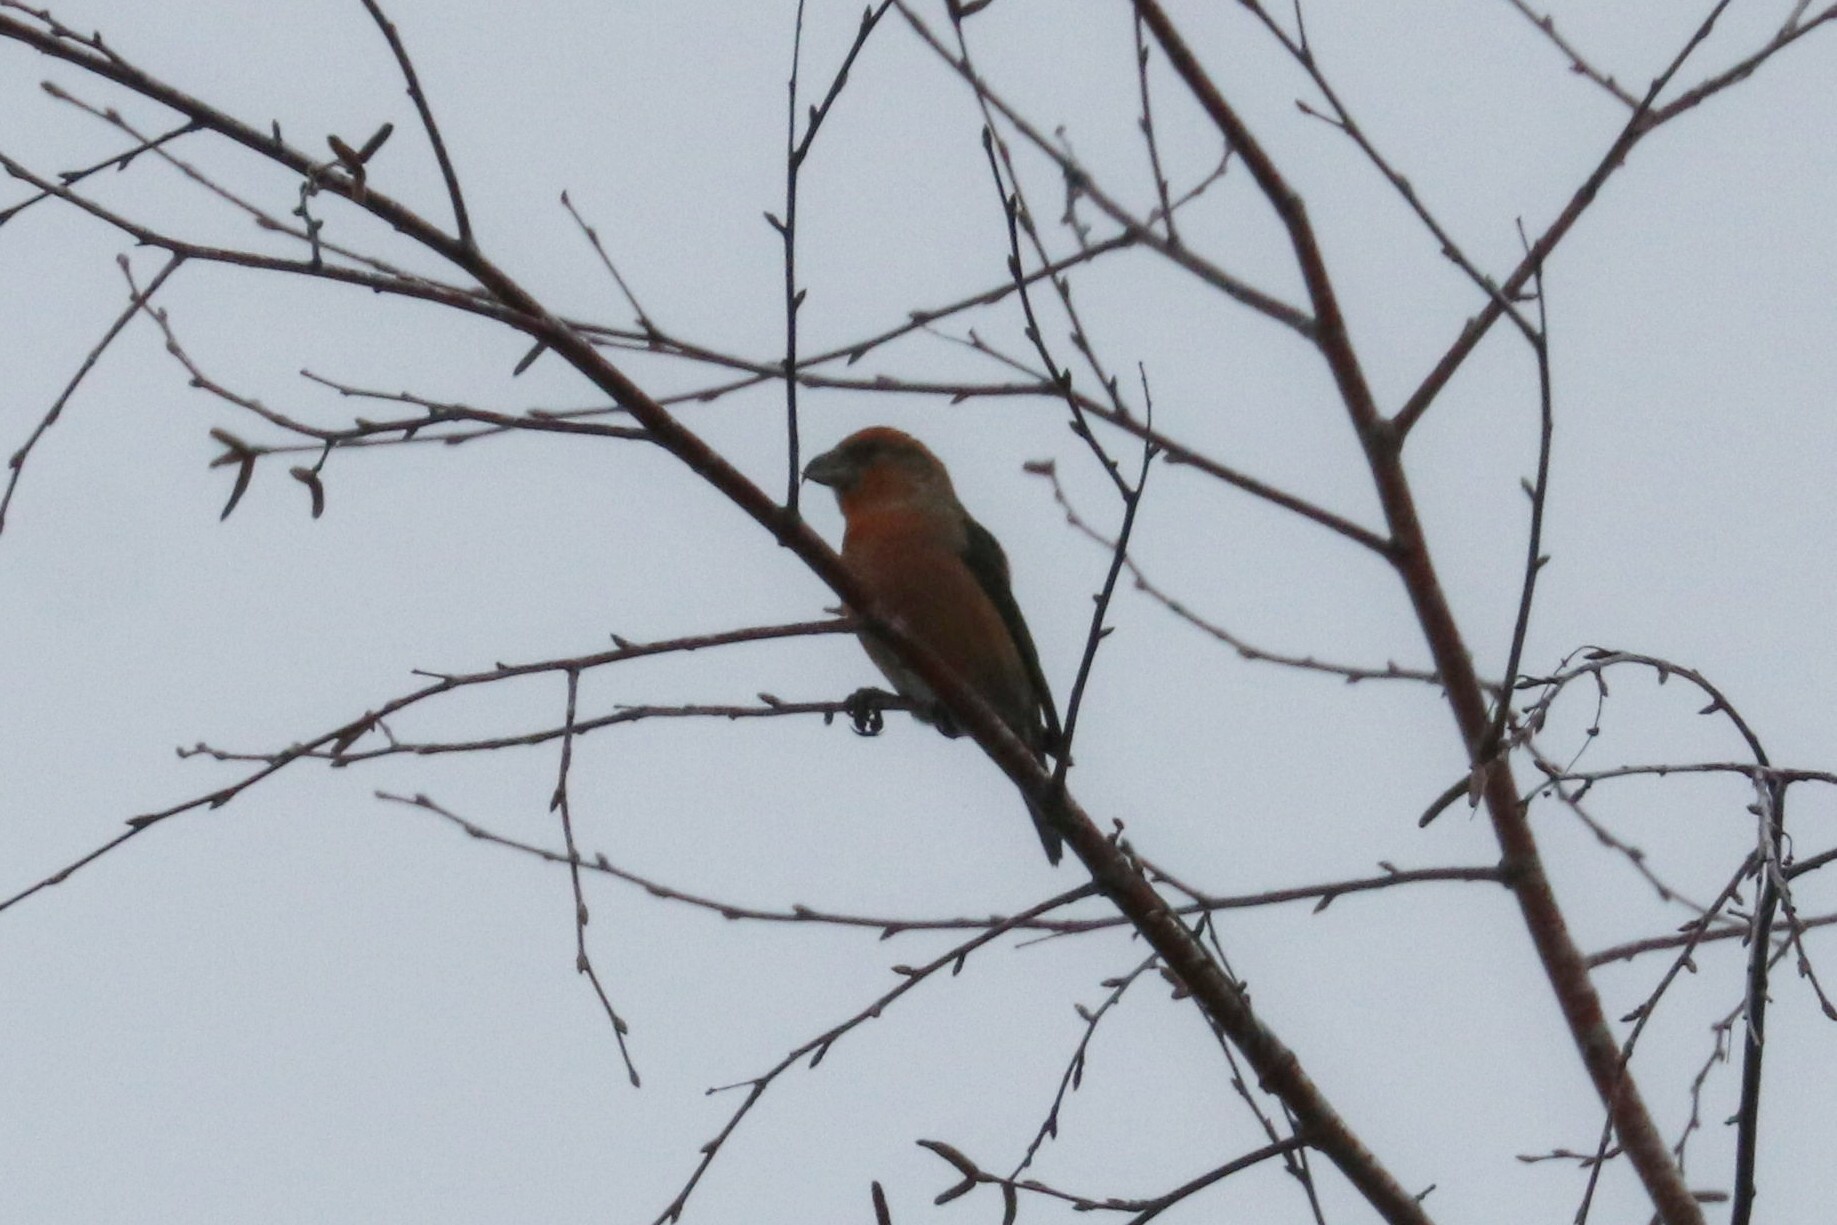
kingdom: Animalia
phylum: Chordata
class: Aves
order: Passeriformes
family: Fringillidae
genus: Loxia
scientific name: Loxia curvirostra
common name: Red crossbill
